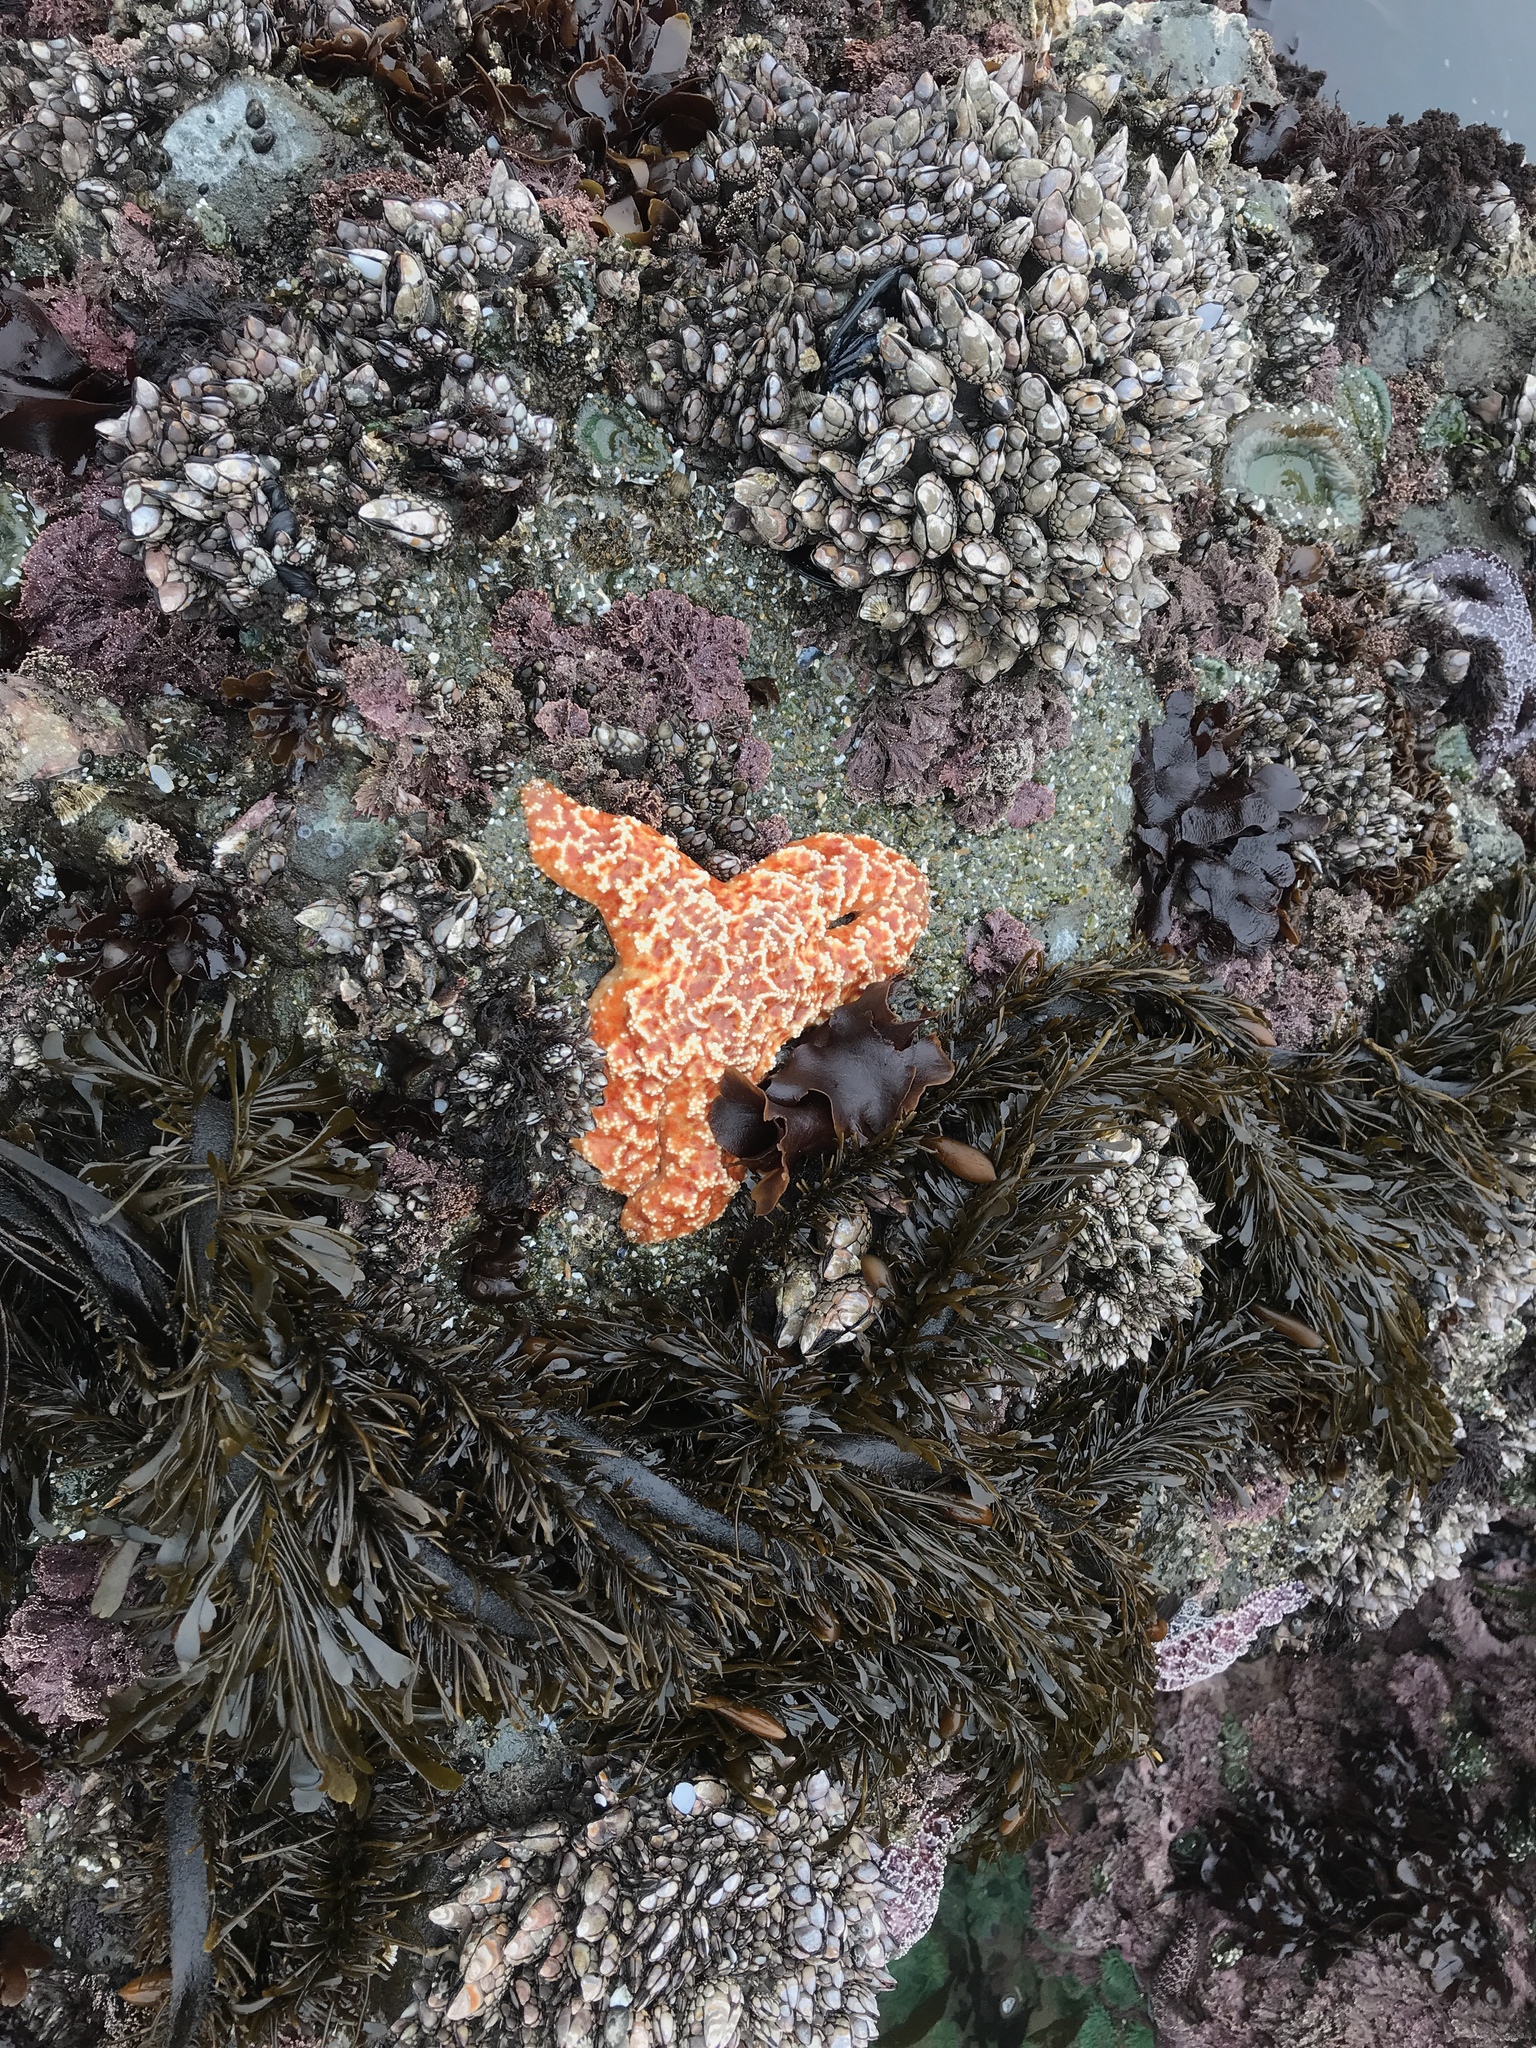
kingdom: Animalia
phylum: Echinodermata
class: Asteroidea
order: Forcipulatida
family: Asteriidae
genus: Pisaster
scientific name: Pisaster ochraceus
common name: Ochre stars
